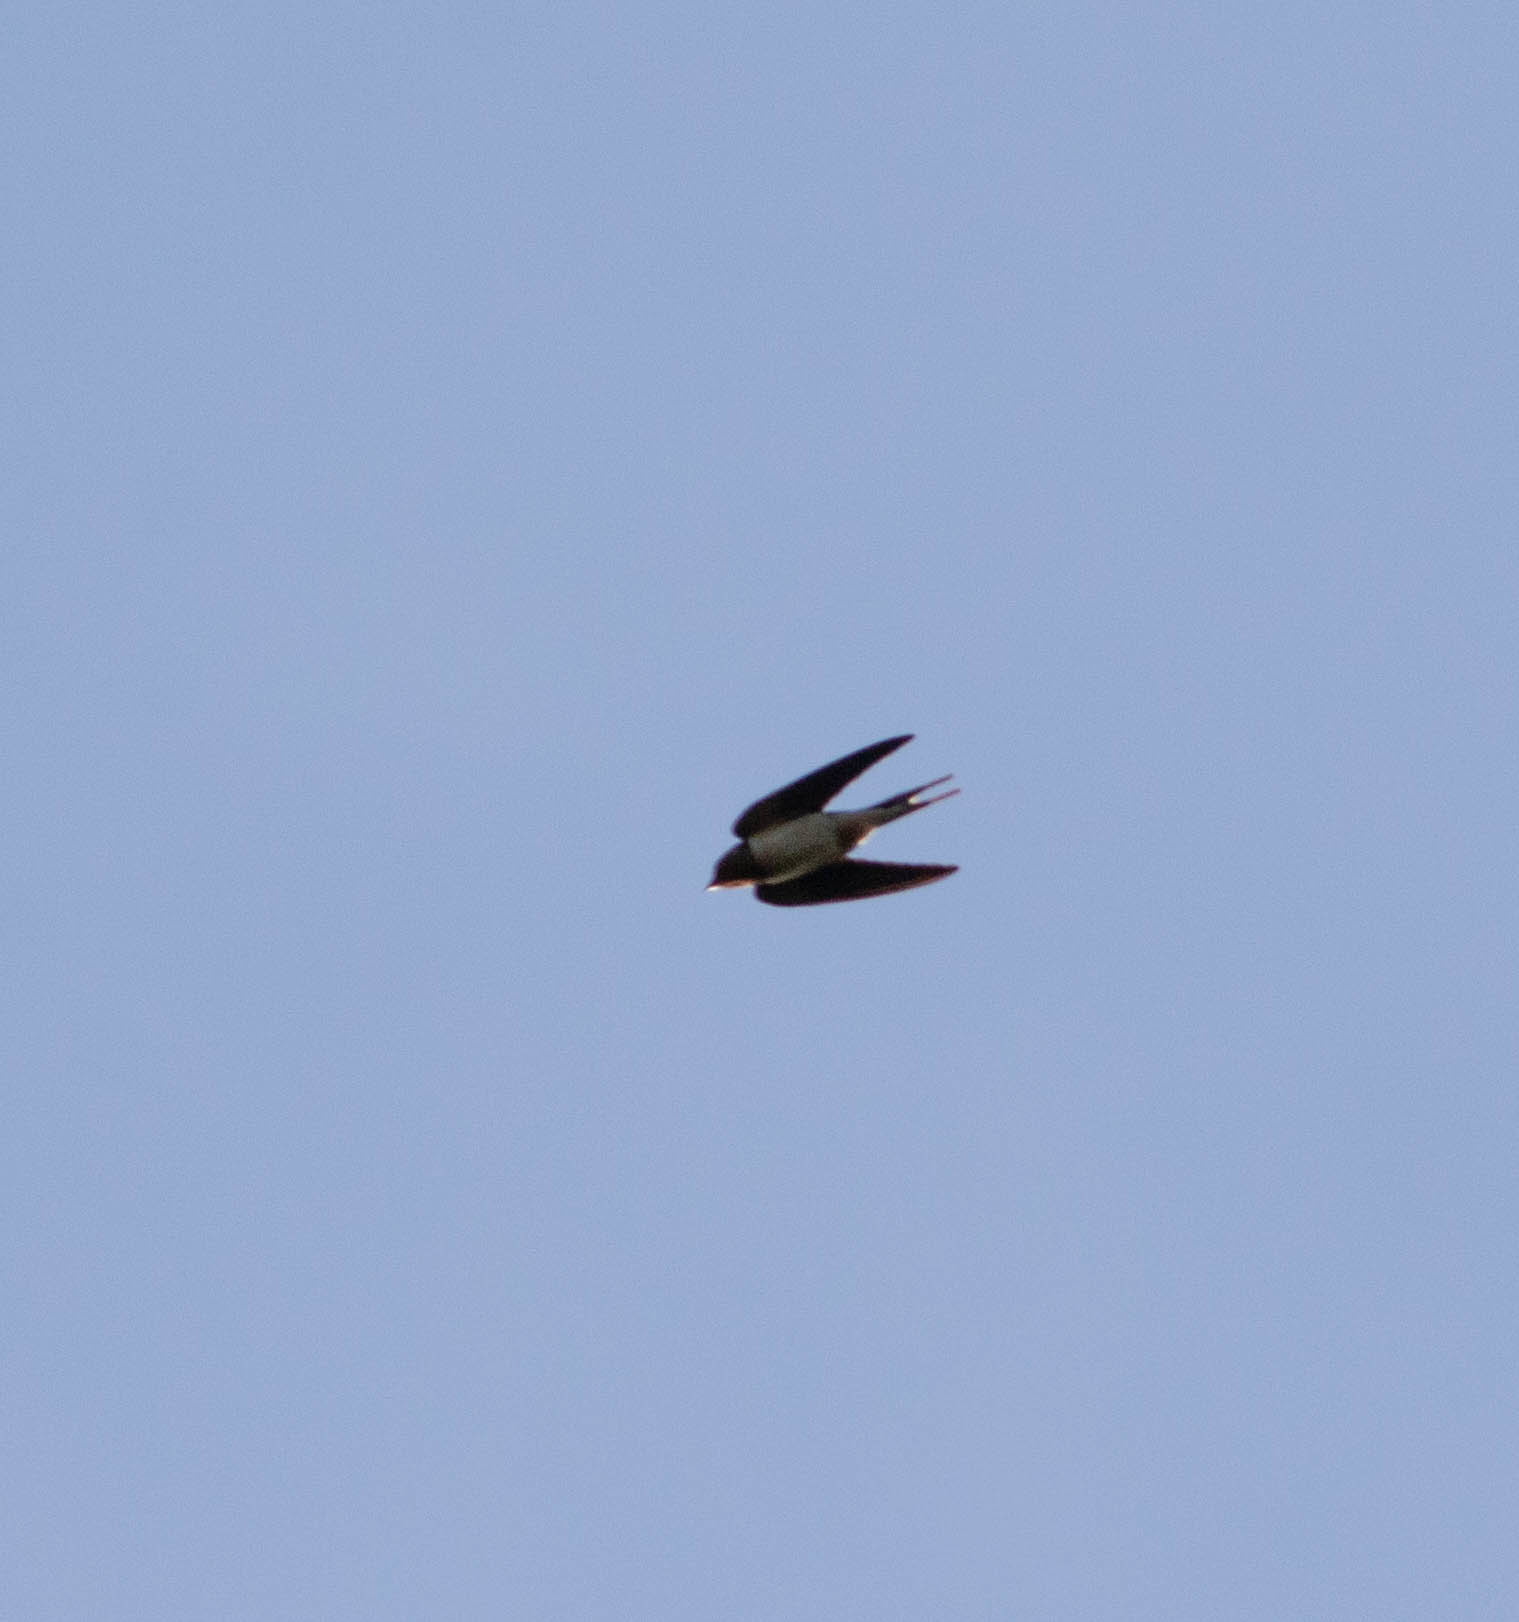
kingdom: Animalia
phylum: Chordata
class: Aves
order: Passeriformes
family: Hirundinidae
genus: Hirundo
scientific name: Hirundo rustica
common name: Barn swallow
